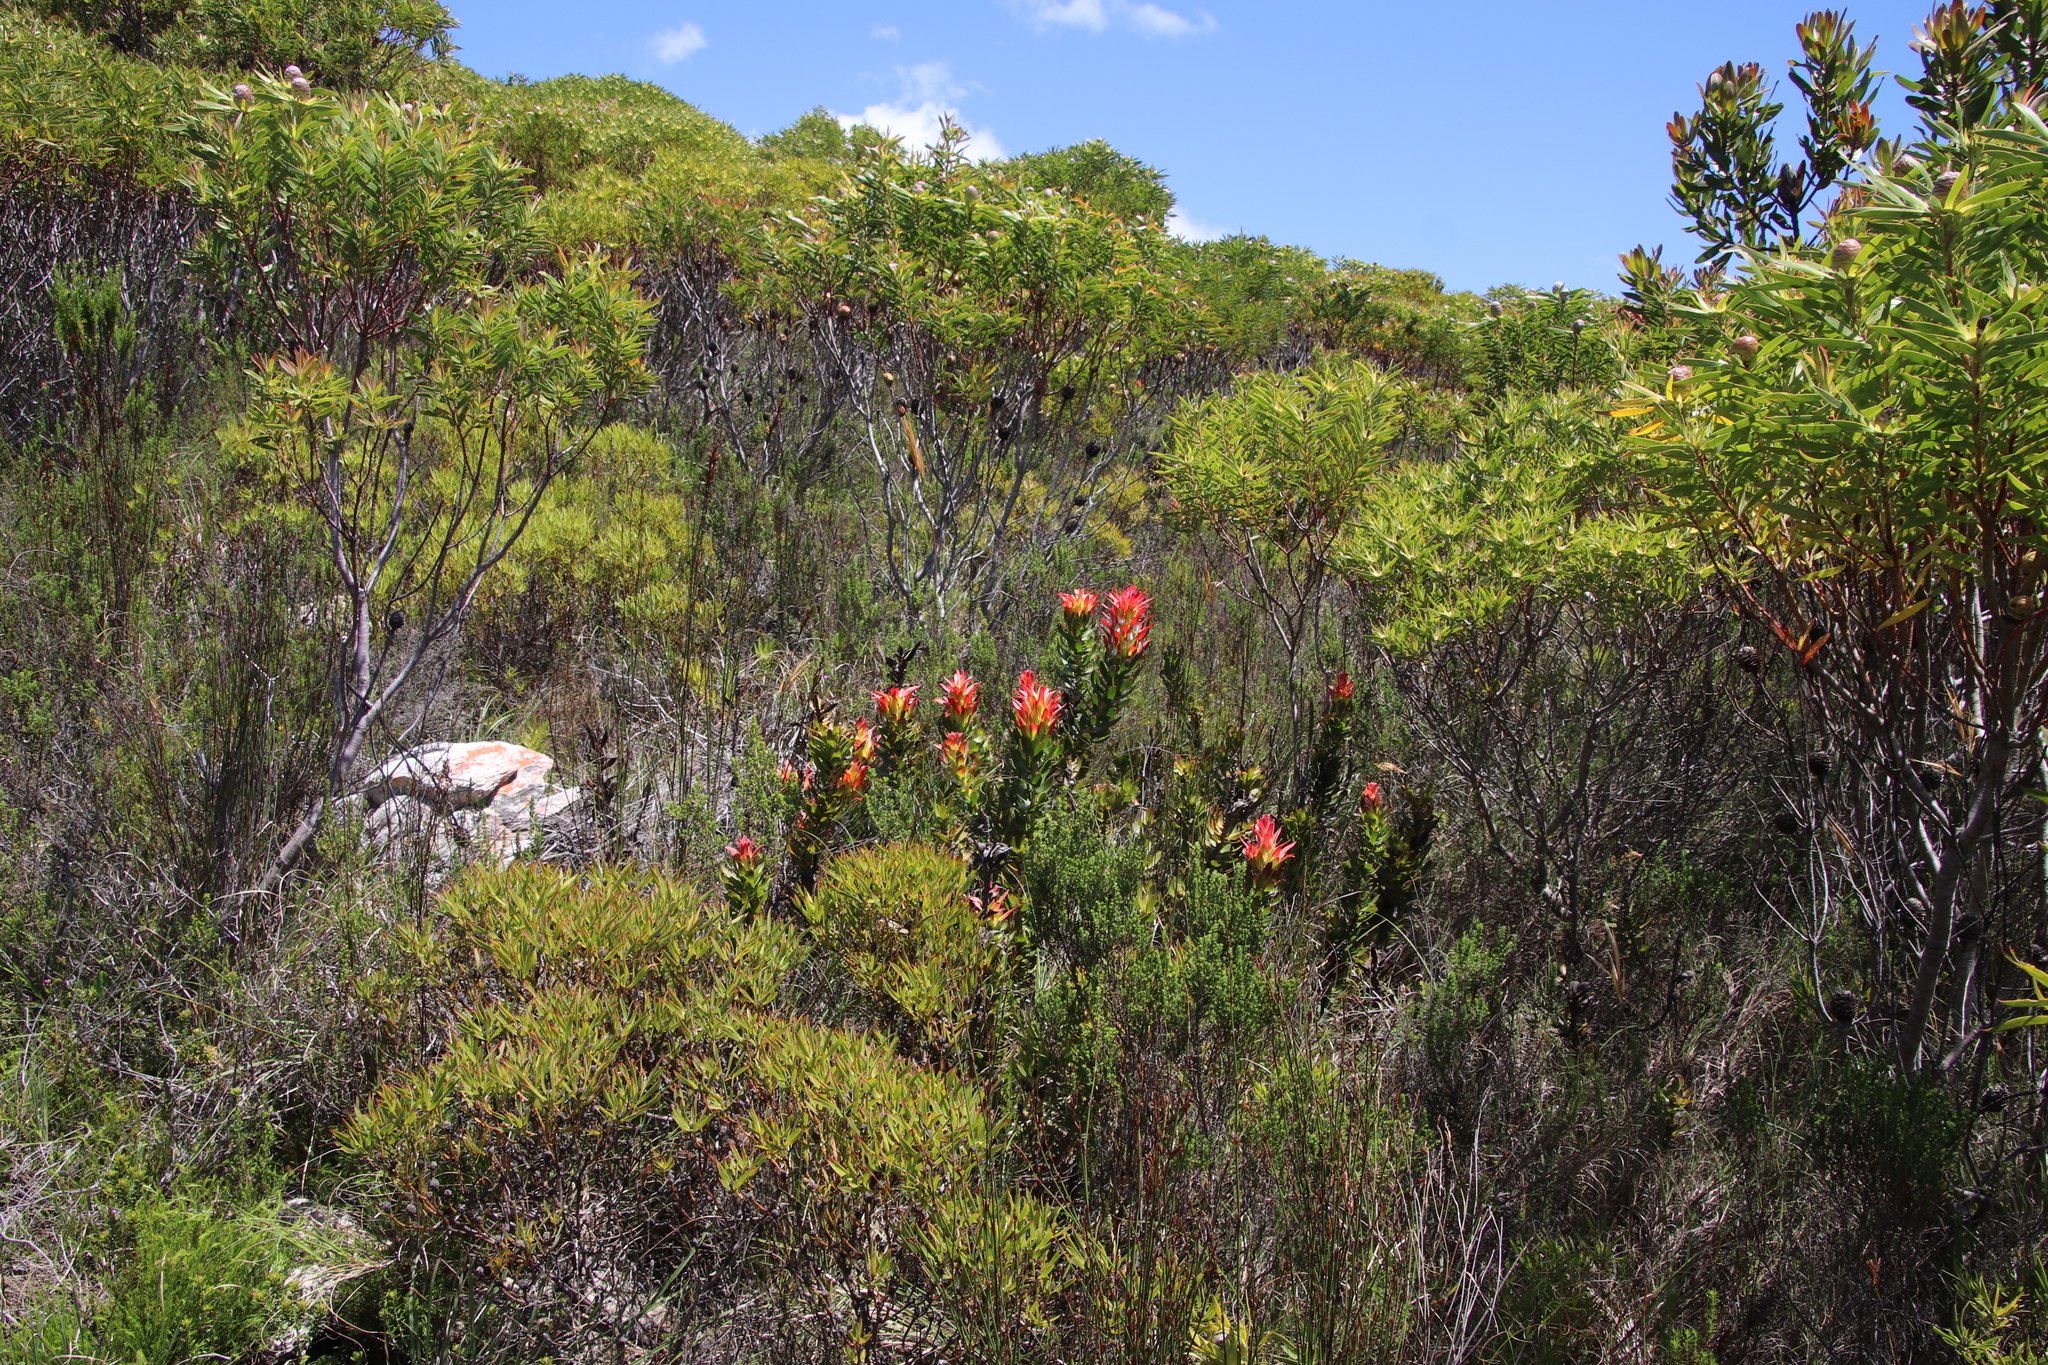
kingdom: Plantae
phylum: Tracheophyta
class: Magnoliopsida
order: Proteales
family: Proteaceae
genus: Mimetes
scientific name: Mimetes cucullatus
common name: Common pagoda
